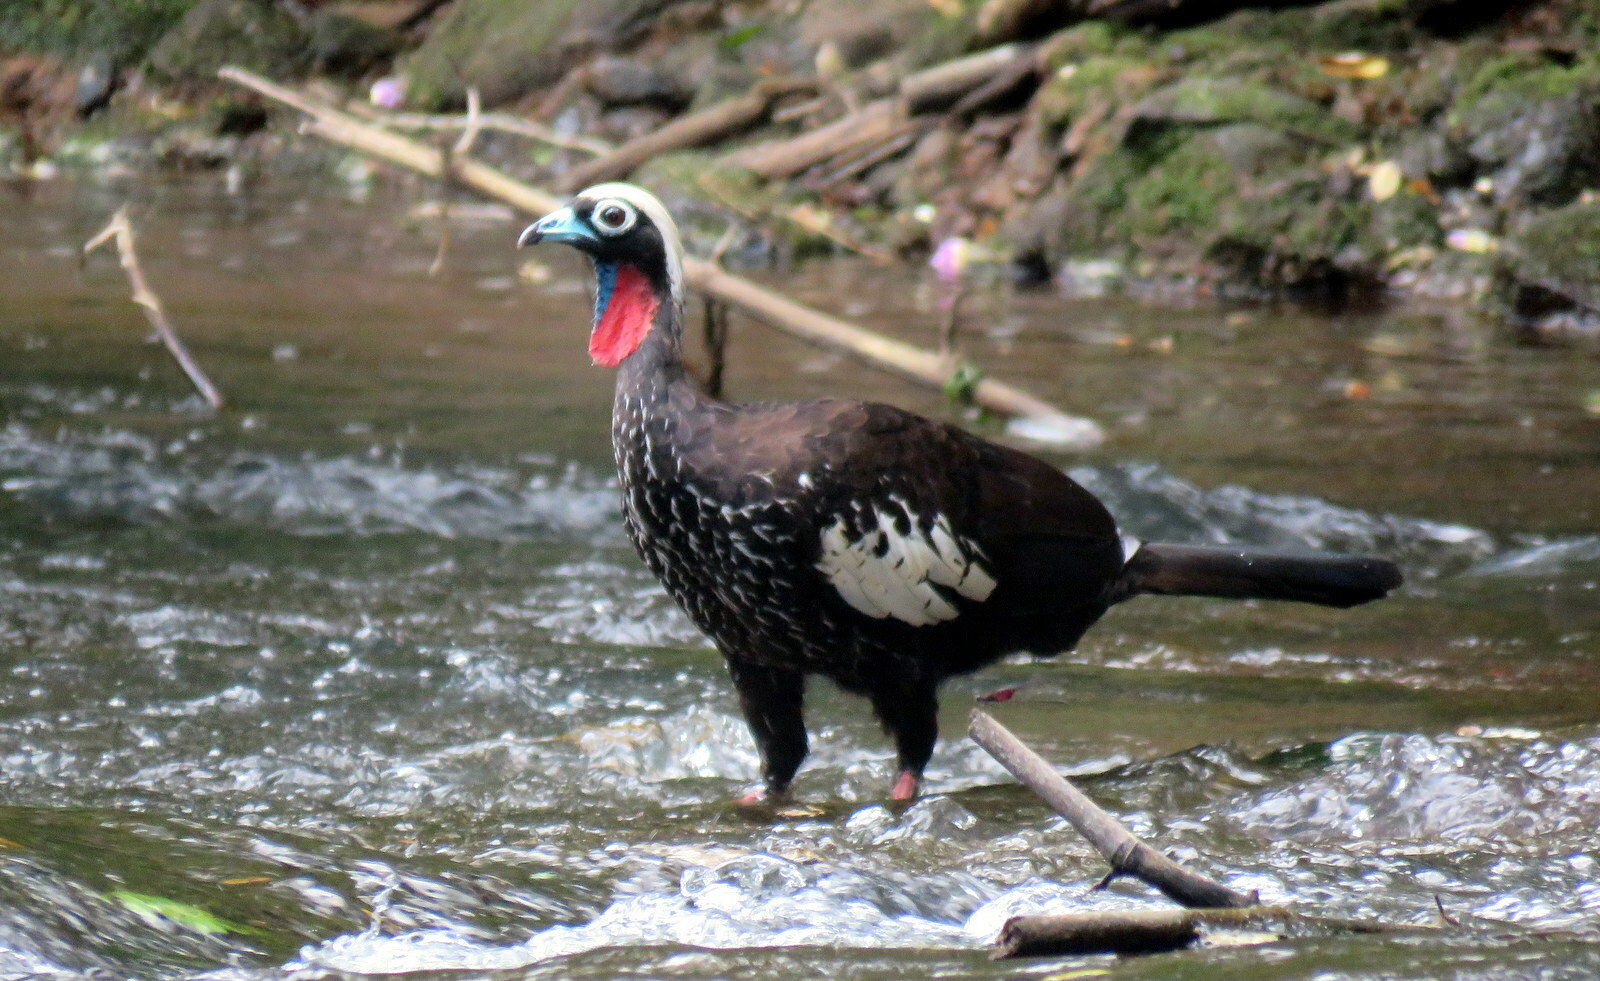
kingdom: Animalia
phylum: Chordata
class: Aves
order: Galliformes
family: Cracidae
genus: Pipile
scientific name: Pipile jacutinga
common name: Black-fronted piping-guan
